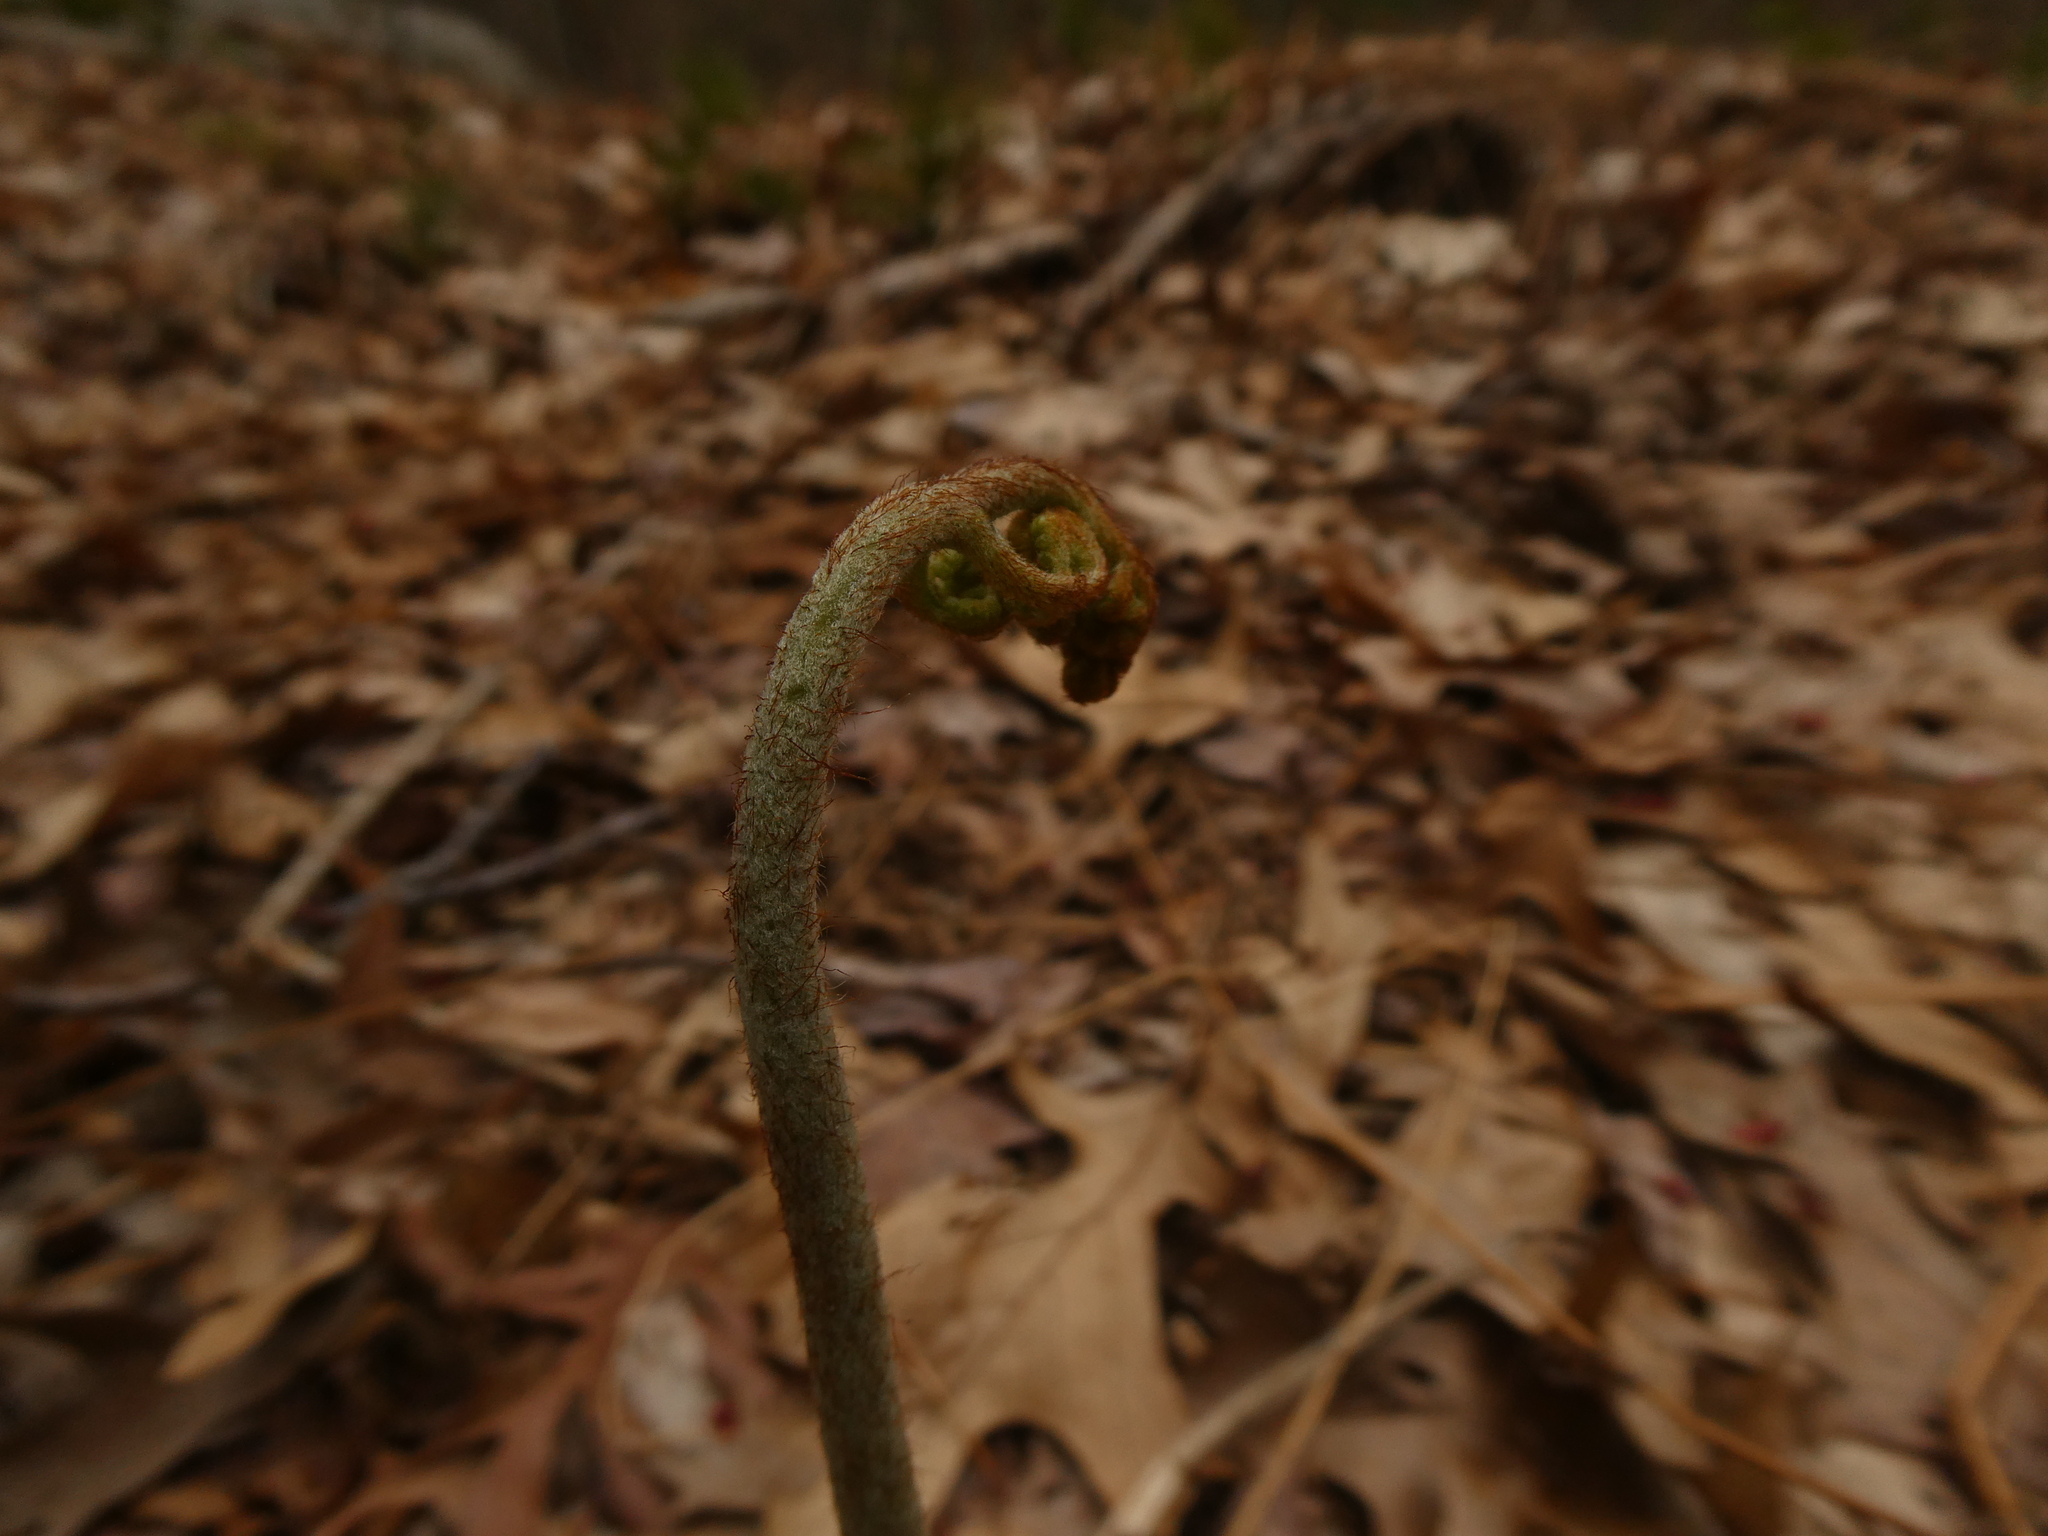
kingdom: Plantae
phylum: Tracheophyta
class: Polypodiopsida
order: Polypodiales
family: Dennstaedtiaceae
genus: Pteridium
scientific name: Pteridium aquilinum
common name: Bracken
